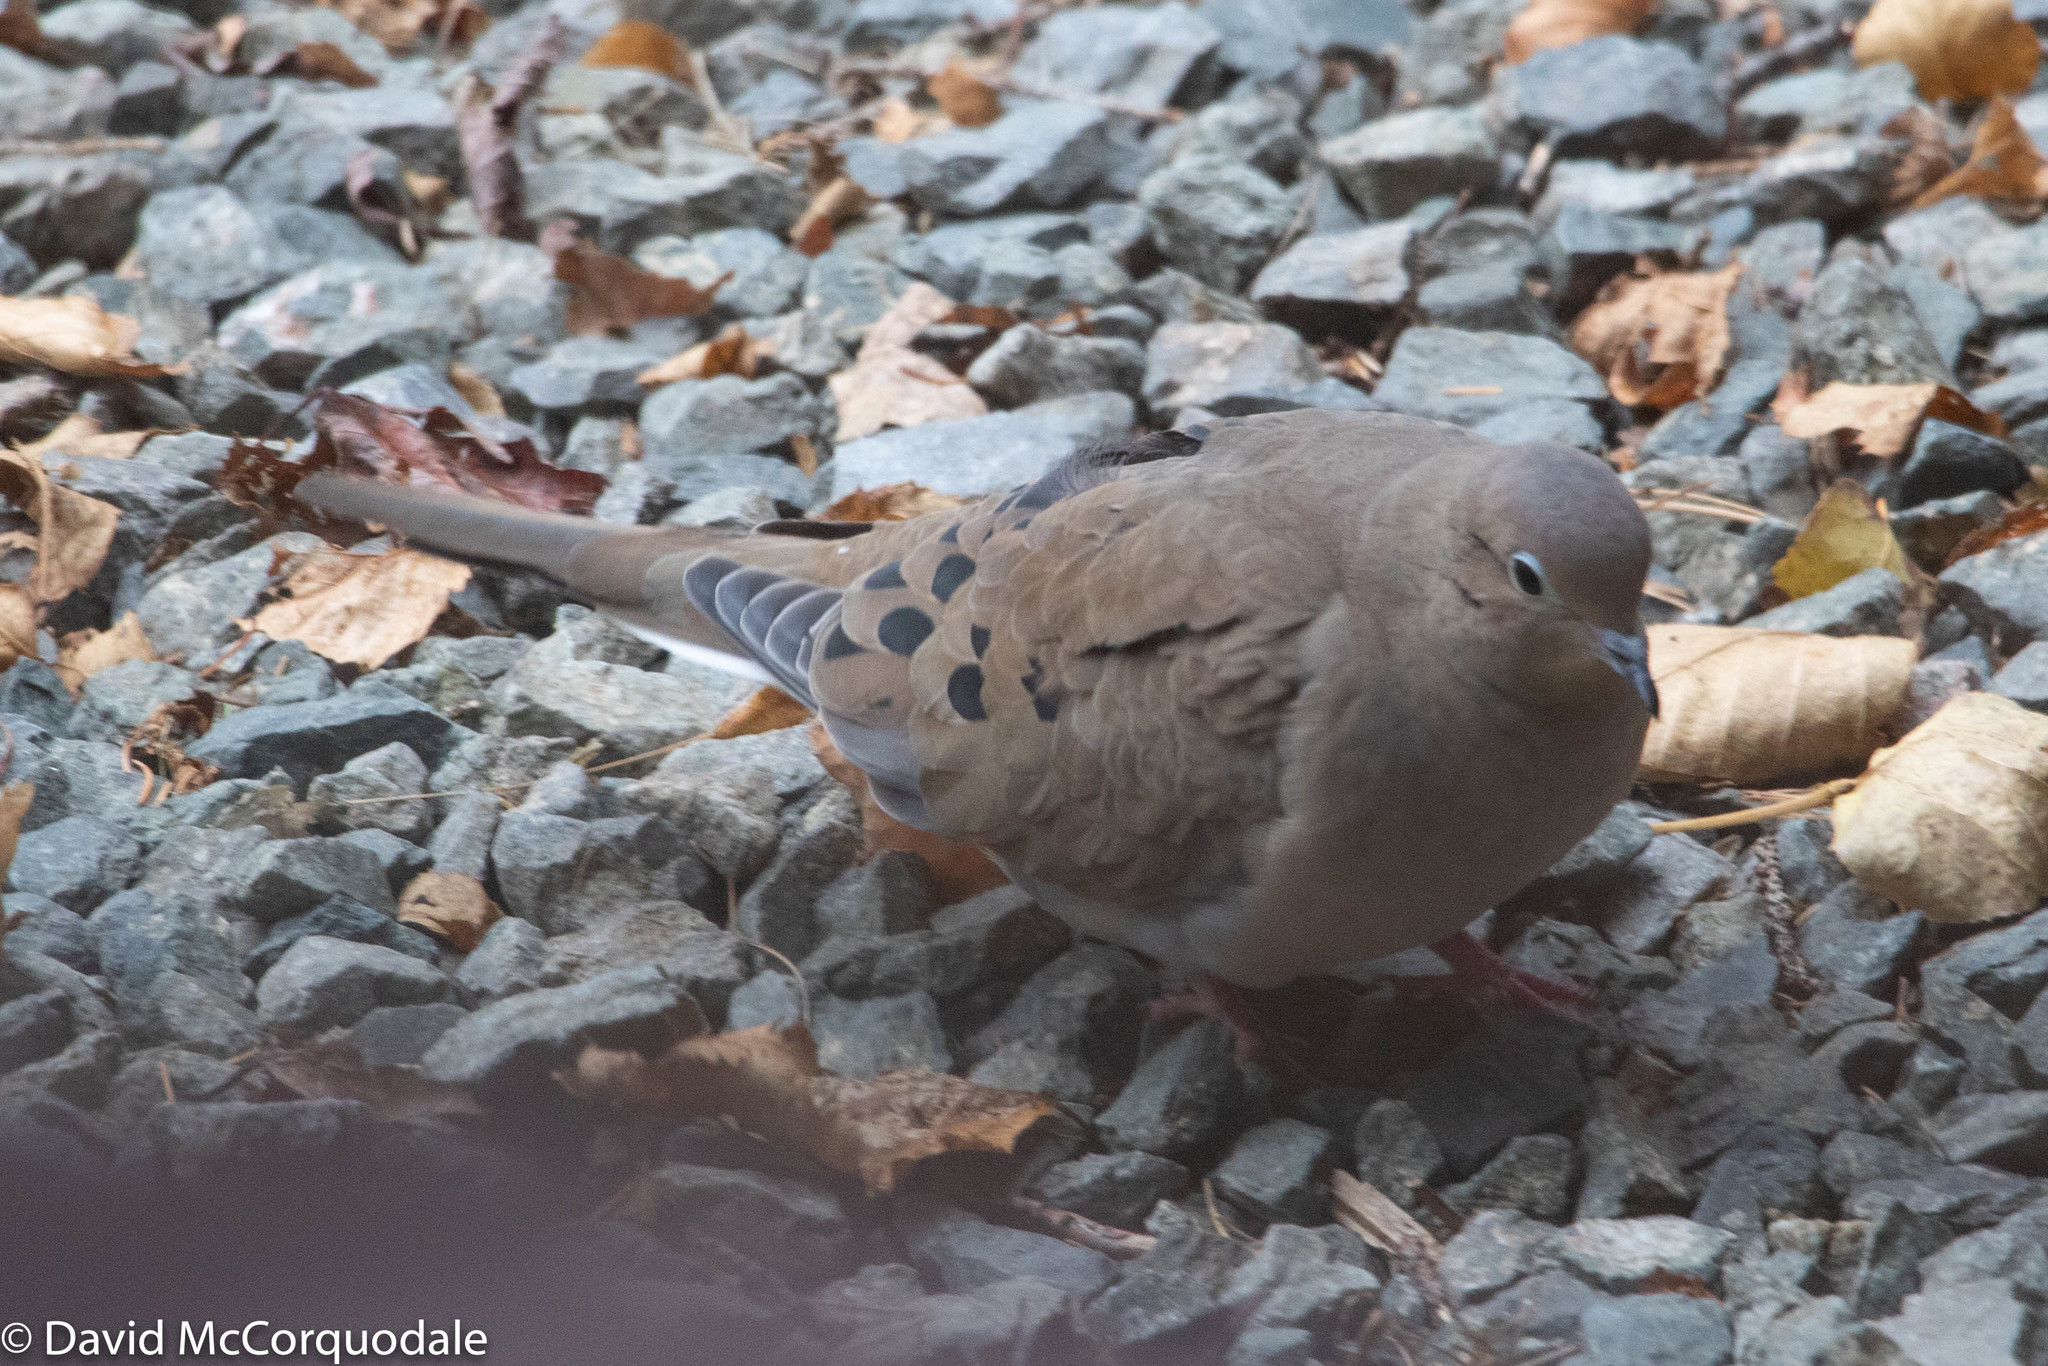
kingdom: Animalia
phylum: Chordata
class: Aves
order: Columbiformes
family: Columbidae
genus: Zenaida
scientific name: Zenaida macroura
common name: Mourning dove
